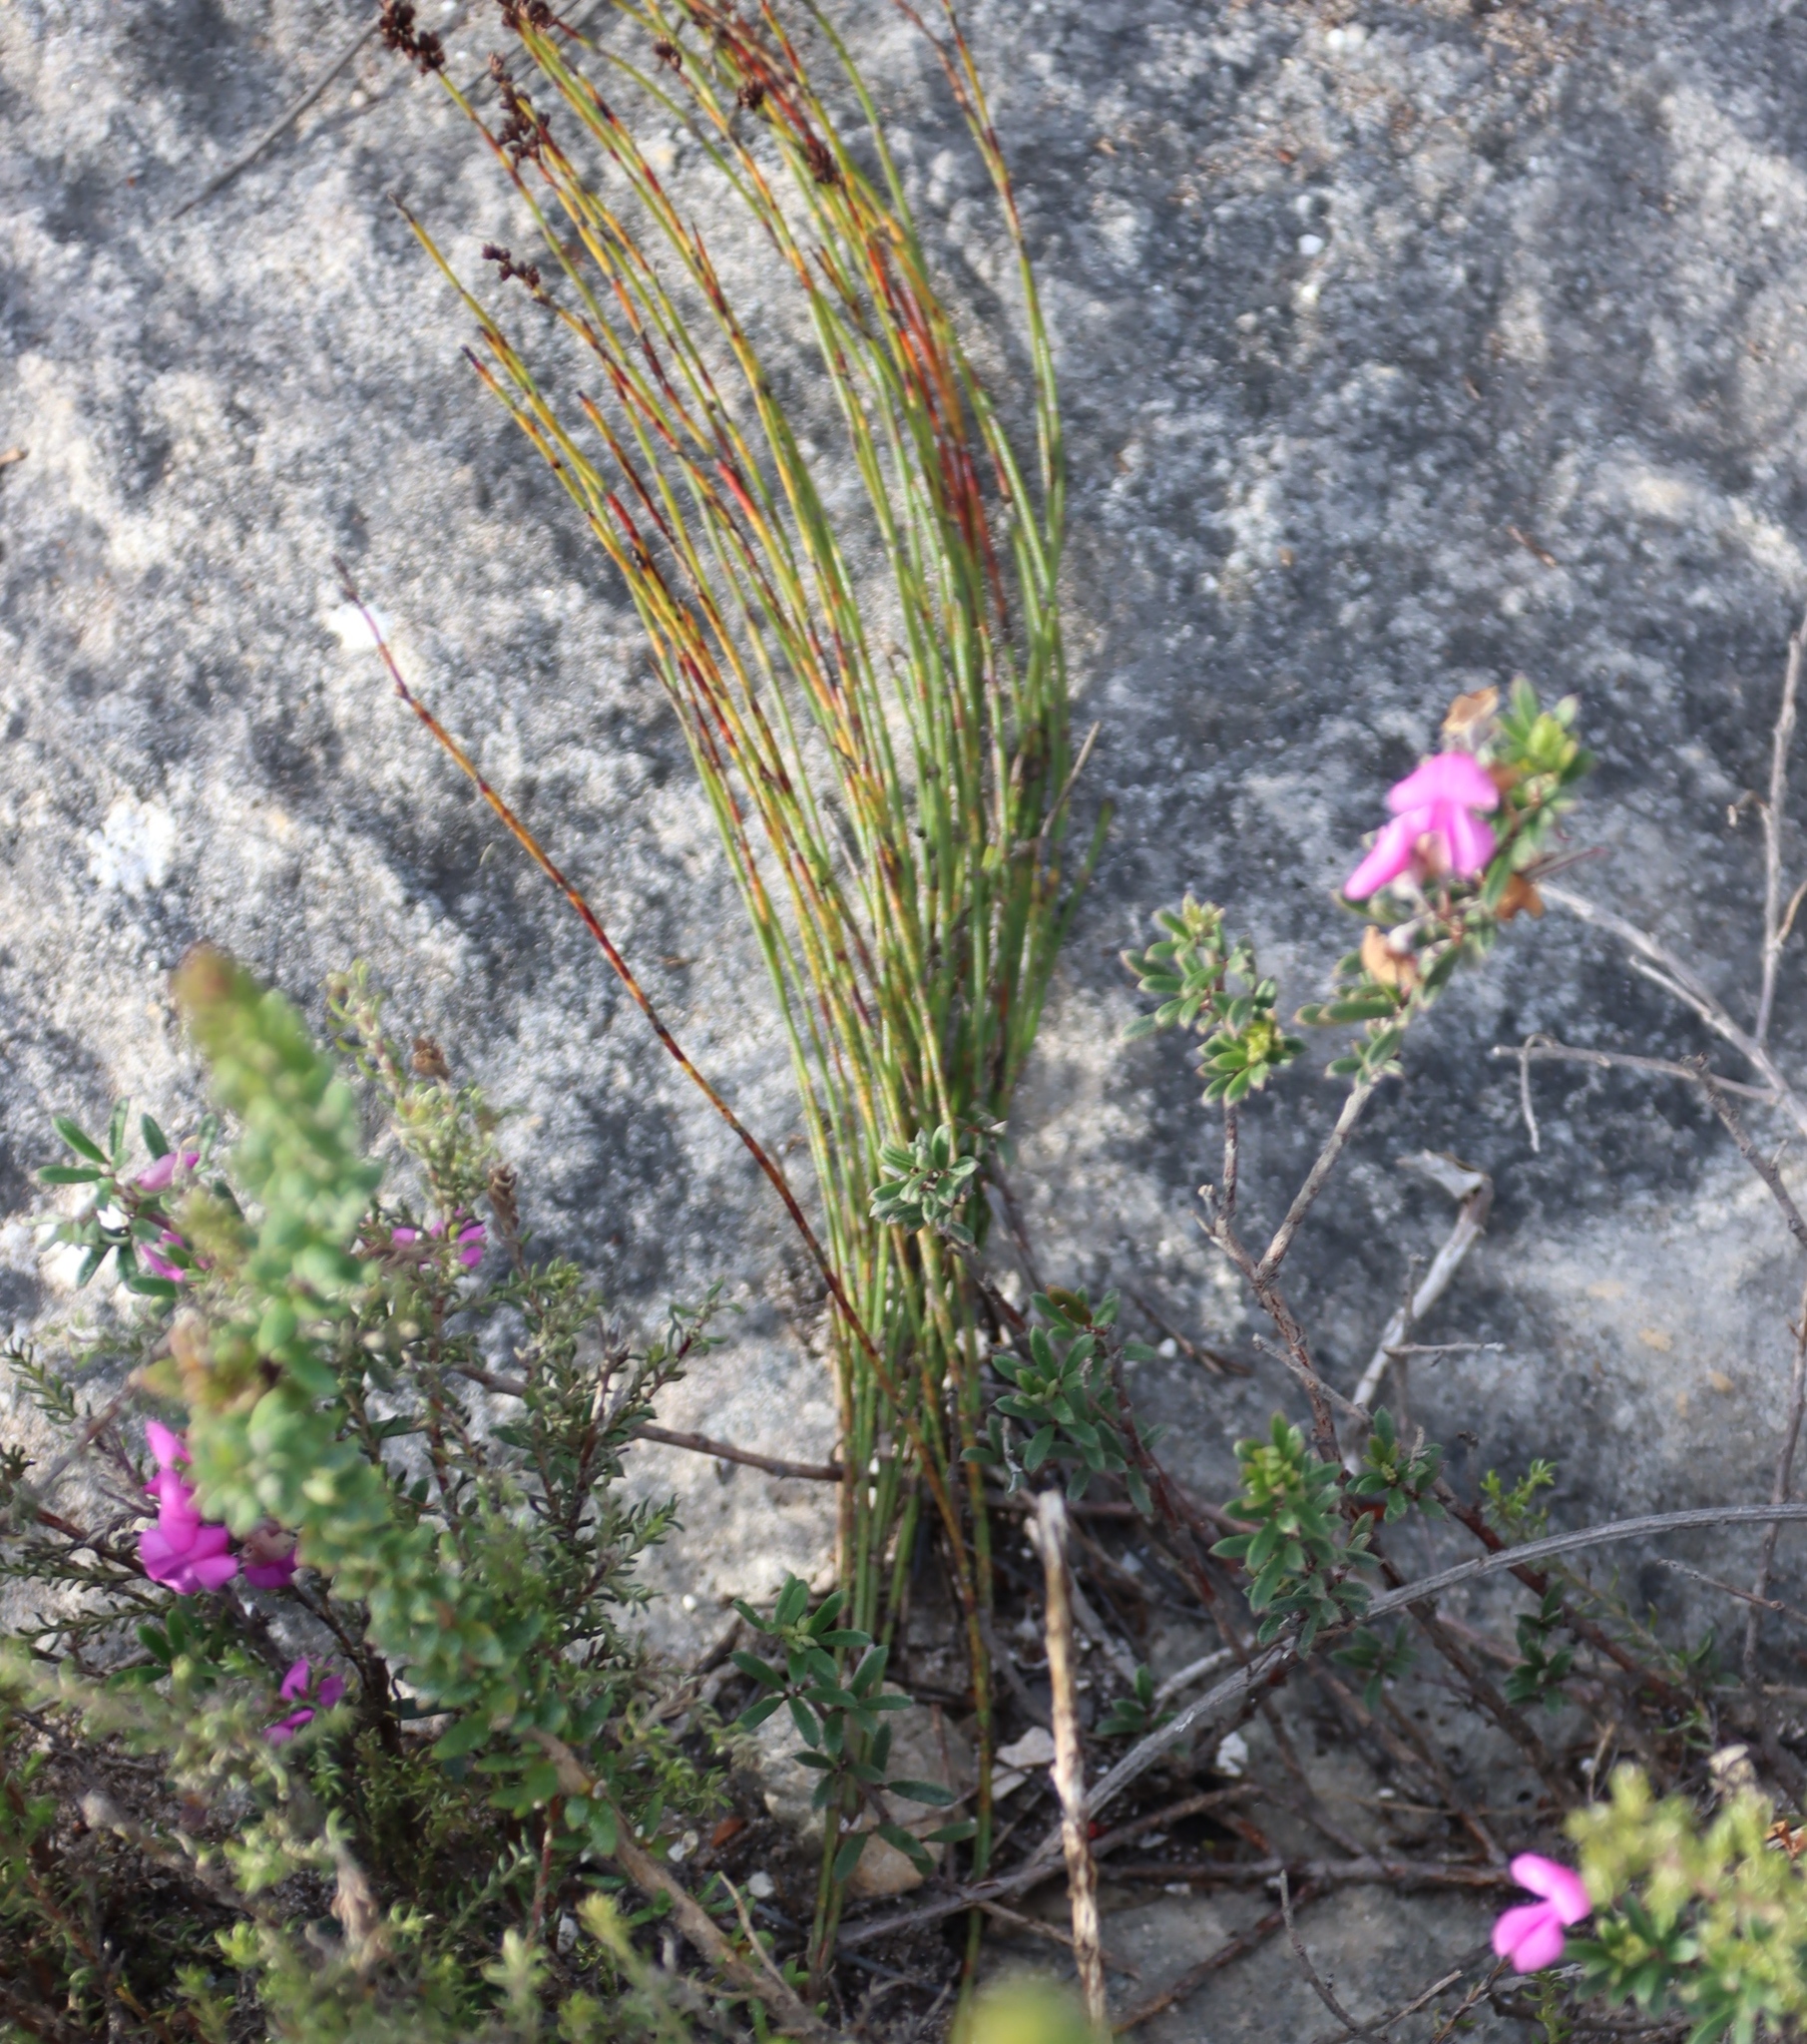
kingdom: Plantae
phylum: Tracheophyta
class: Liliopsida
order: Poales
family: Restionaceae
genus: Elegia
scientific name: Elegia microcarpa
